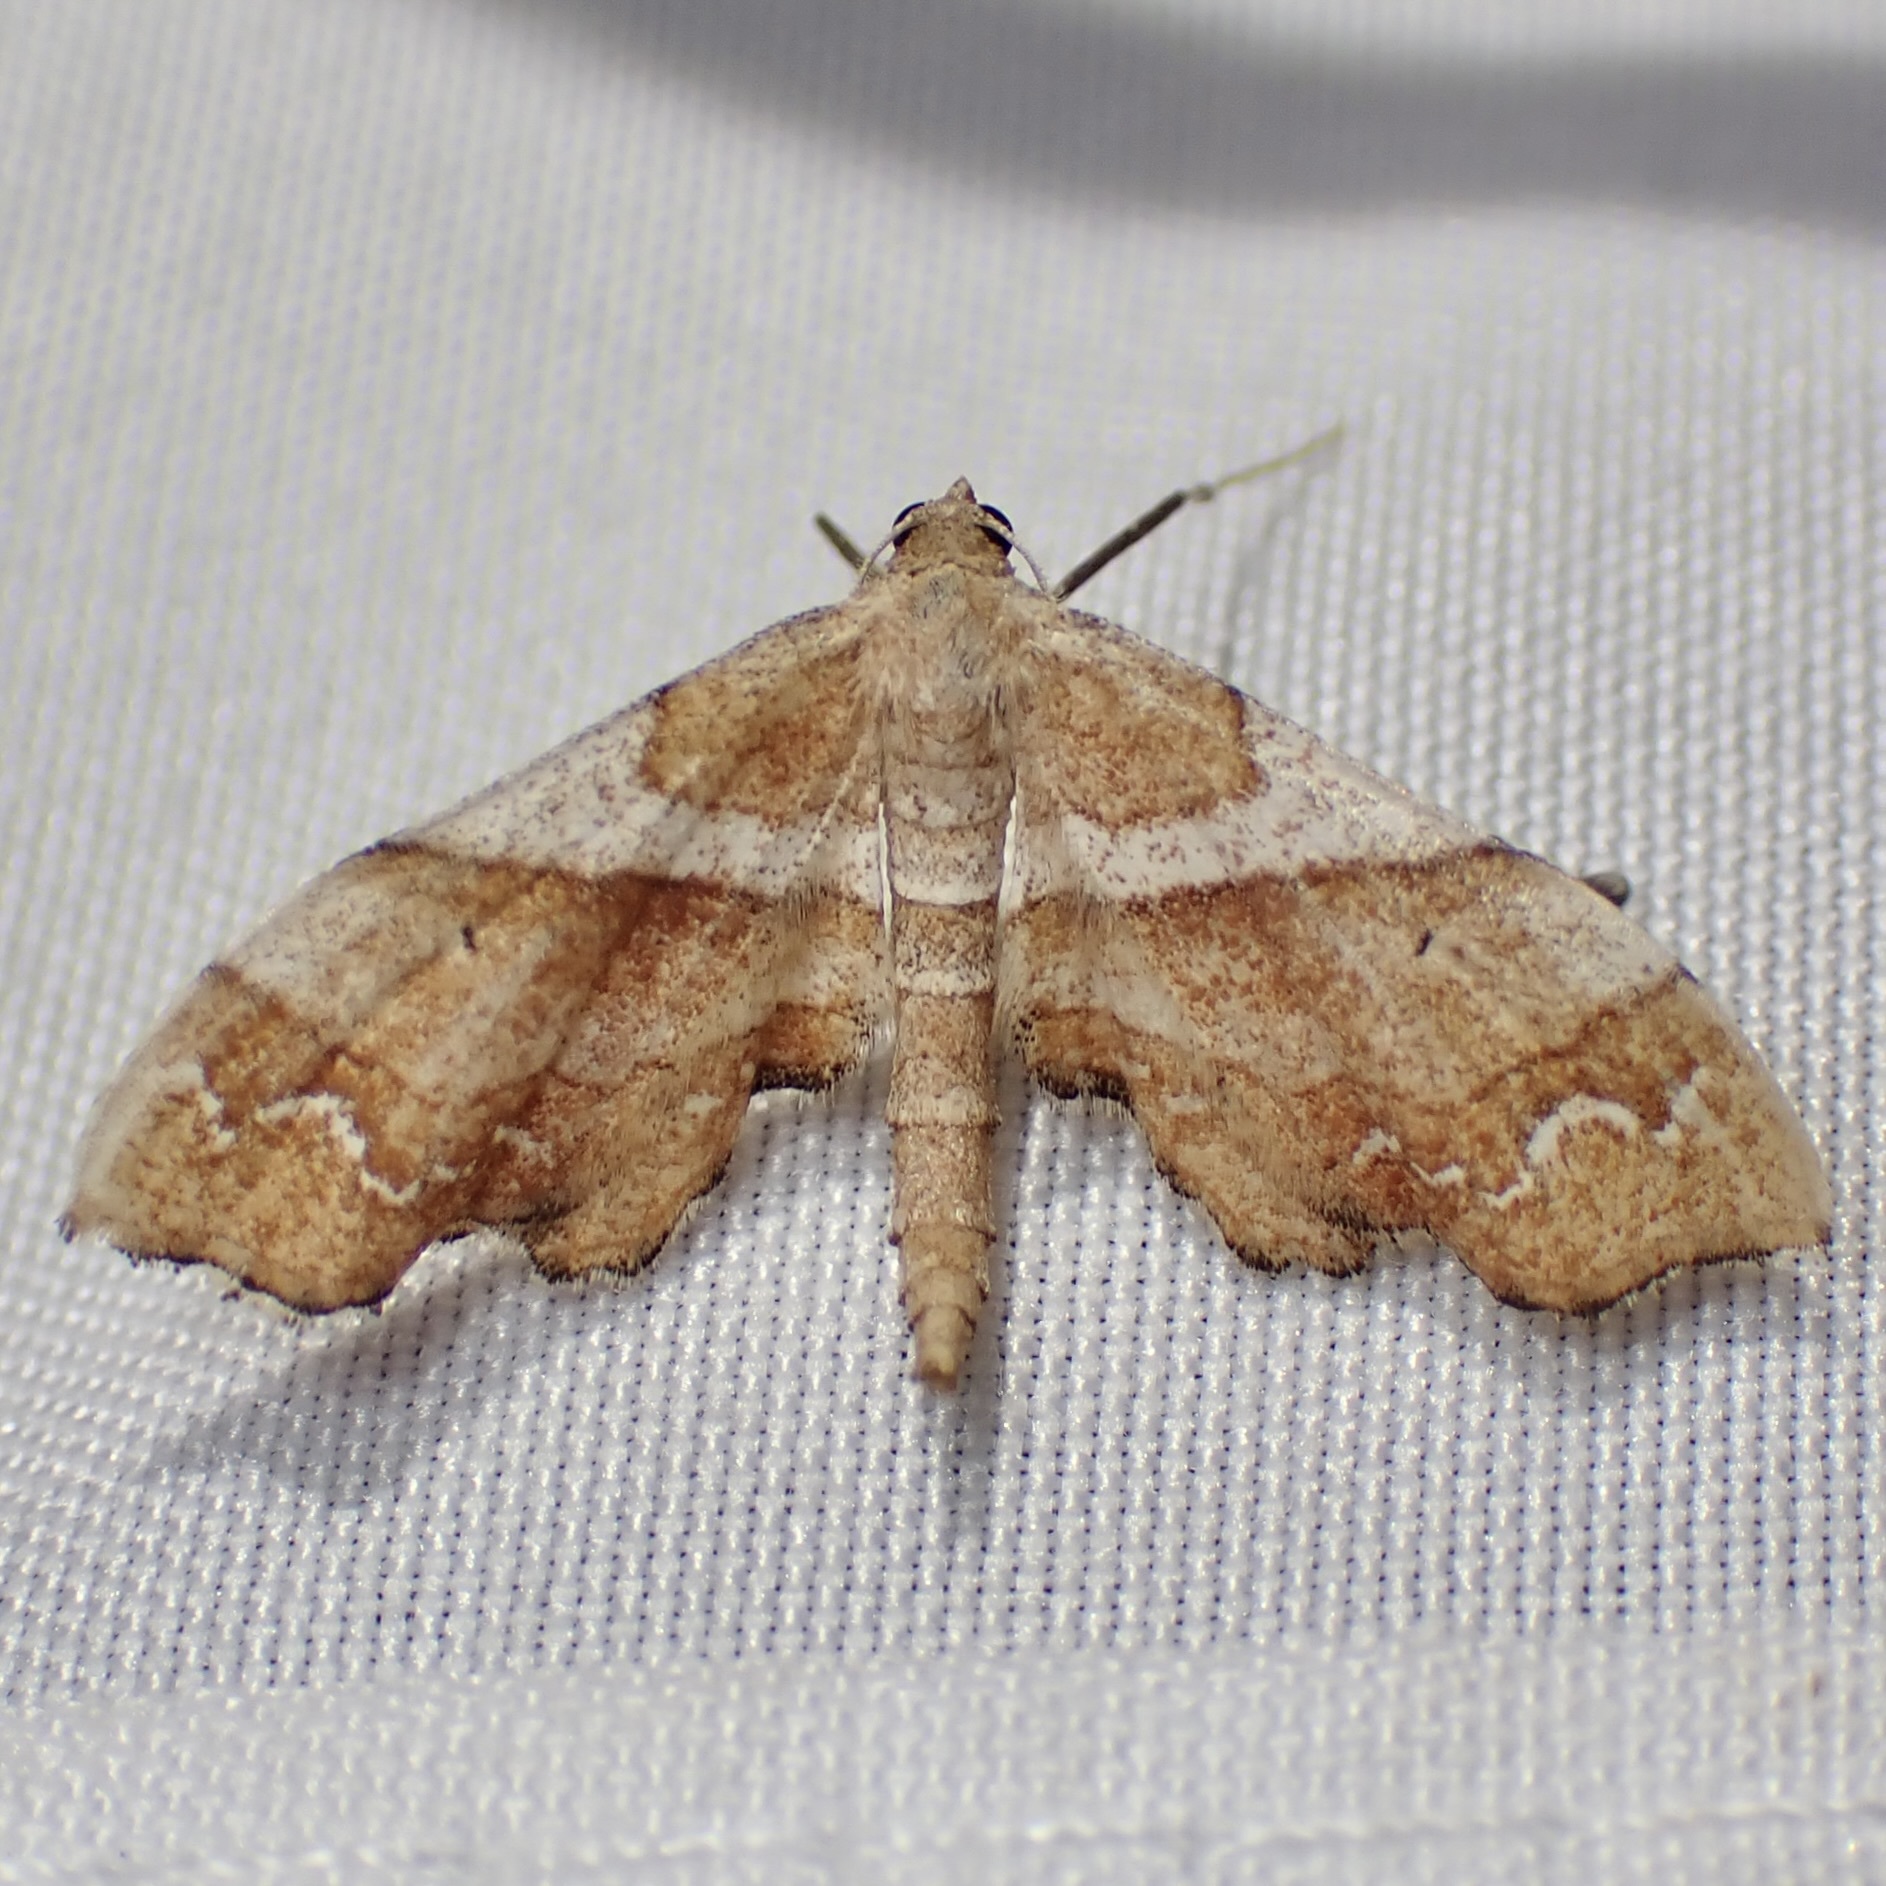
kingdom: Animalia
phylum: Arthropoda
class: Insecta
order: Lepidoptera
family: Geometridae
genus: Odontoptila
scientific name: Odontoptila obrimo
